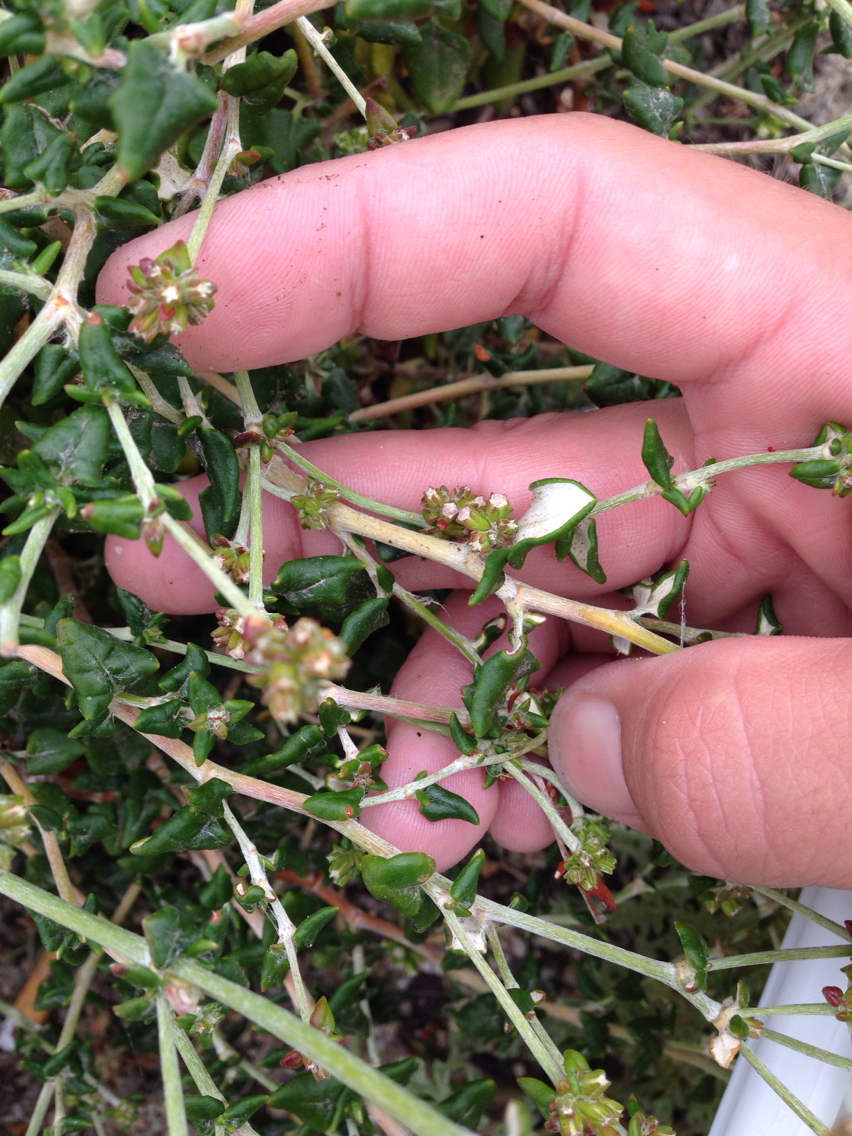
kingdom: Plantae
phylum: Tracheophyta
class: Magnoliopsida
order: Caryophyllales
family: Polygonaceae
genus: Eriogonum
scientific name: Eriogonum parvifolium
